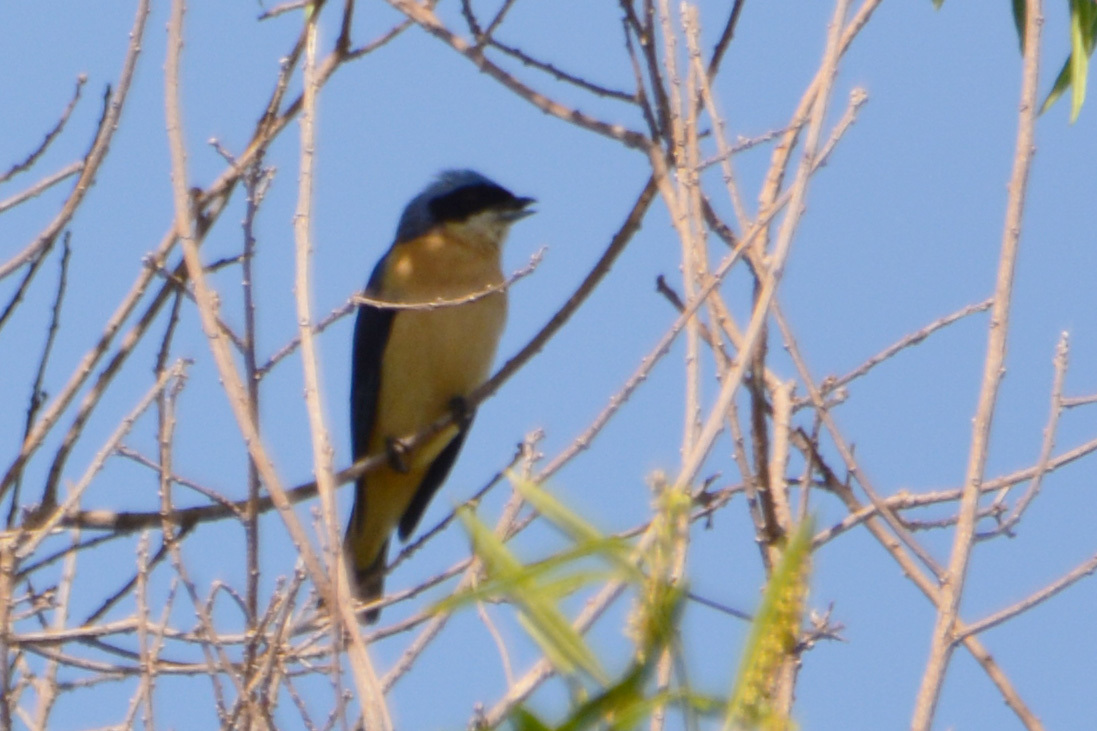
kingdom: Animalia
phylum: Chordata
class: Aves
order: Passeriformes
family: Thraupidae
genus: Pipraeidea
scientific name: Pipraeidea melanonota
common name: Fawn-breasted tanager
